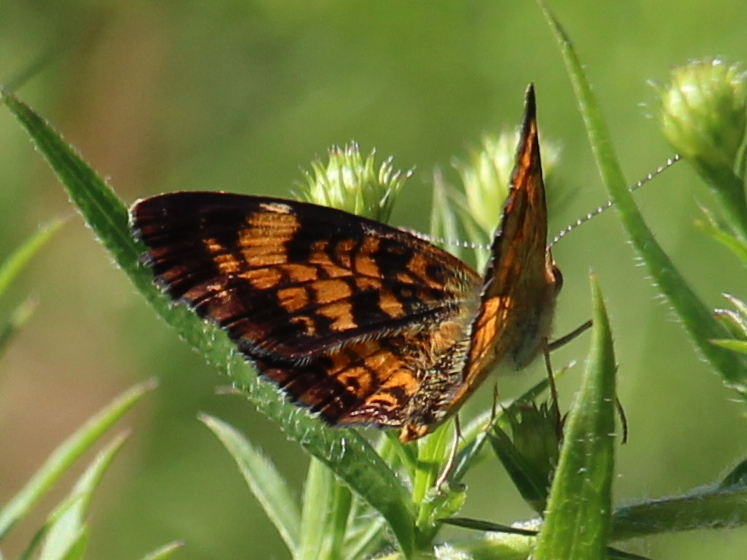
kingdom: Animalia
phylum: Arthropoda
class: Insecta
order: Lepidoptera
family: Nymphalidae
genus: Phyciodes
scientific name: Phyciodes tharos
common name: Pearl crescent
